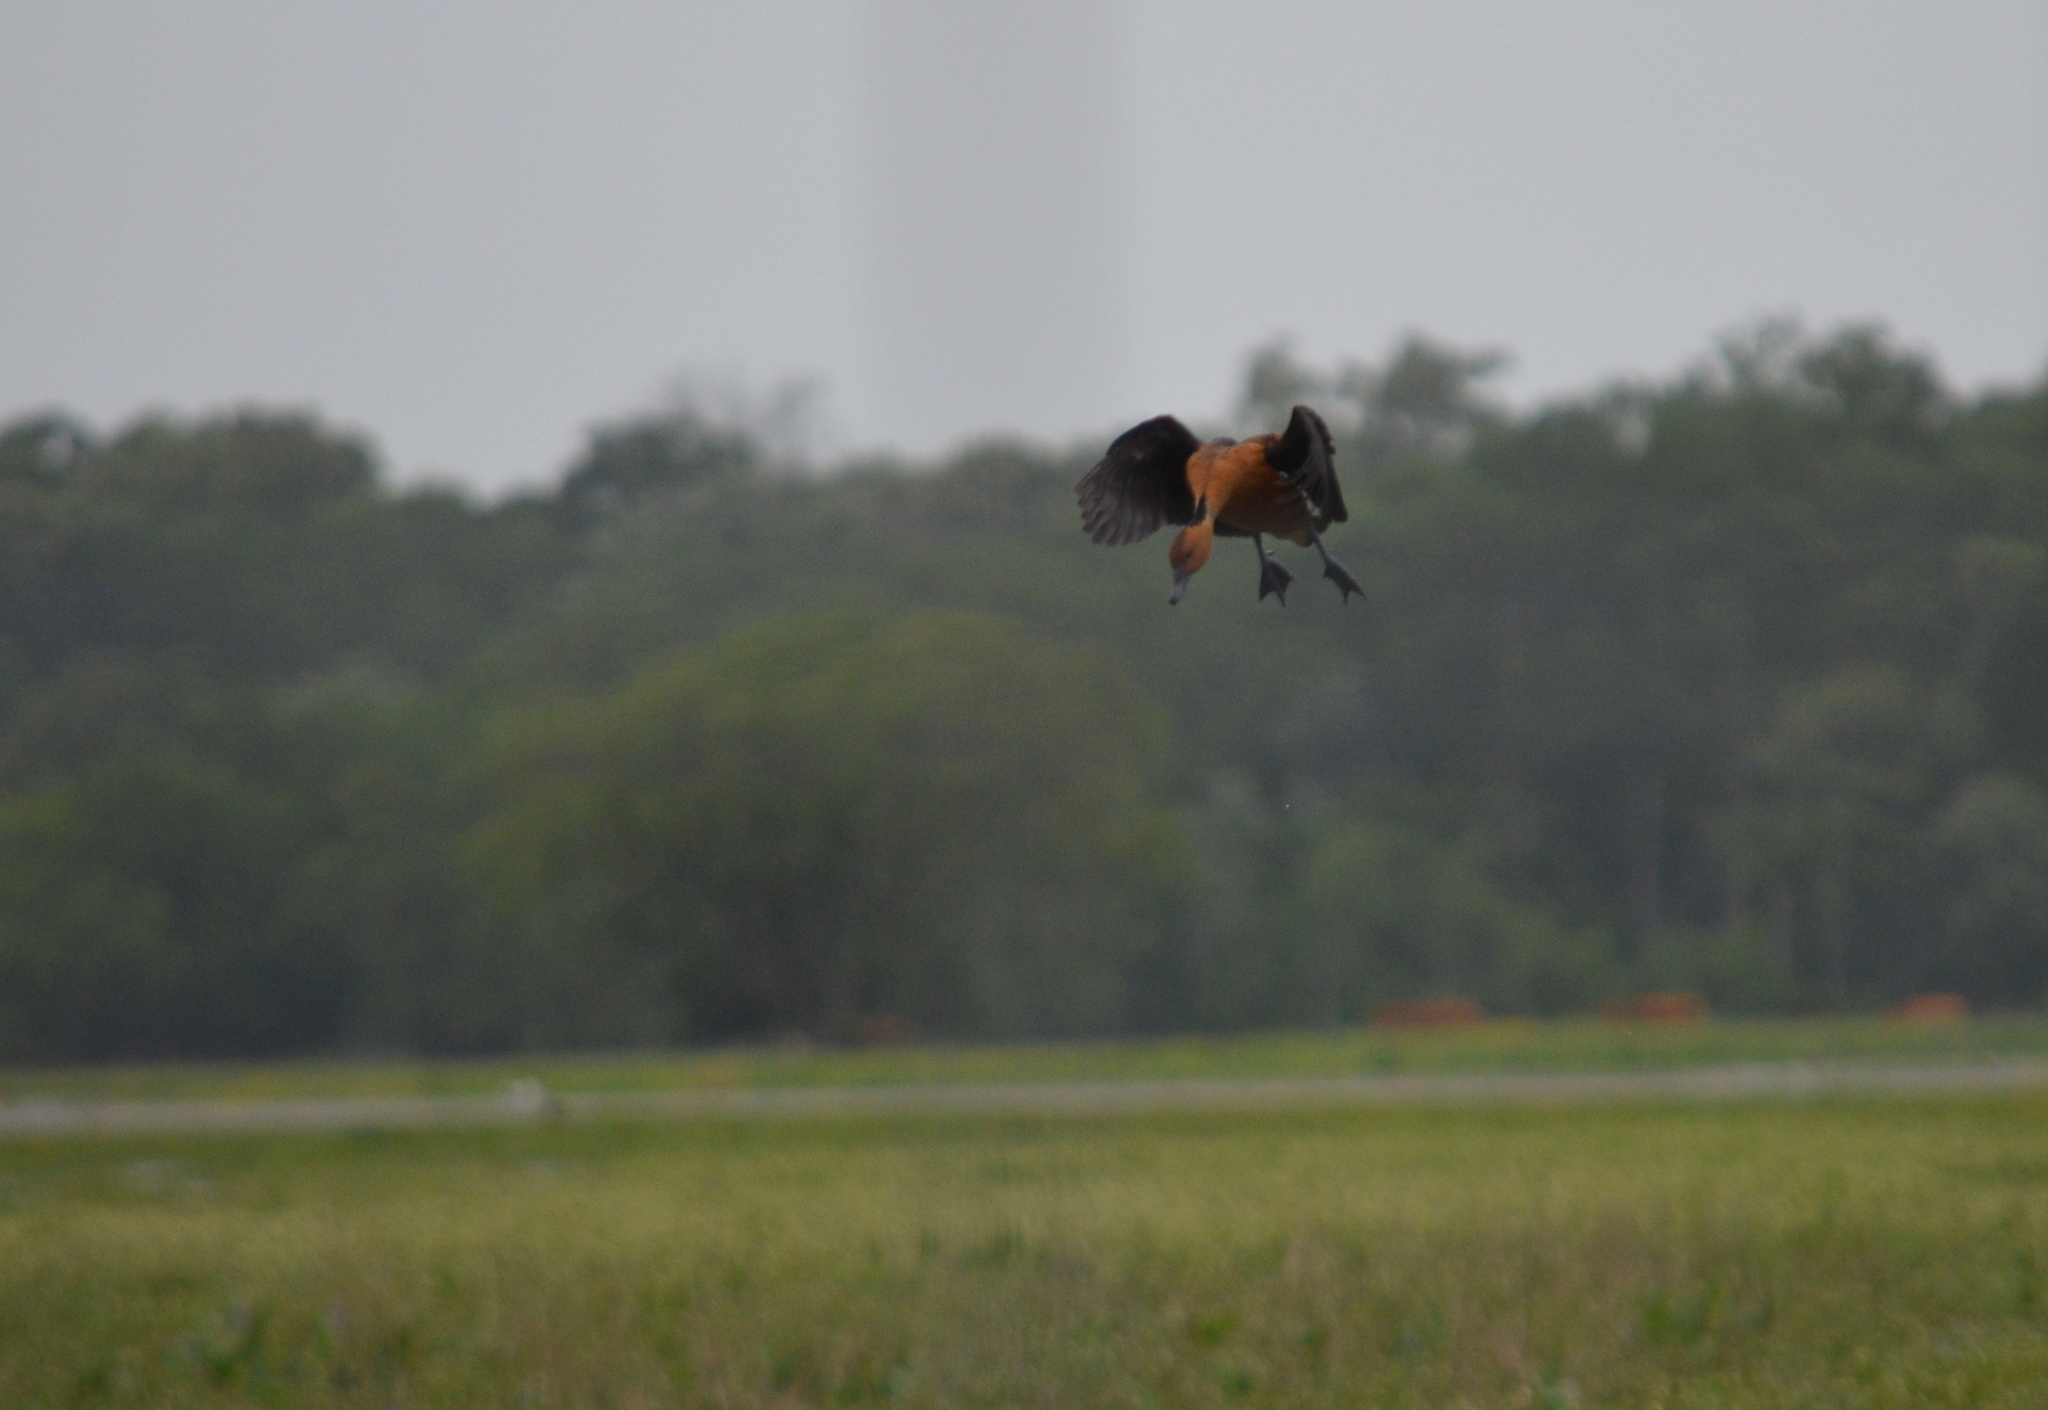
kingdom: Animalia
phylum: Chordata
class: Aves
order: Anseriformes
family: Anatidae
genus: Dendrocygna
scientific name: Dendrocygna bicolor
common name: Fulvous whistling duck
